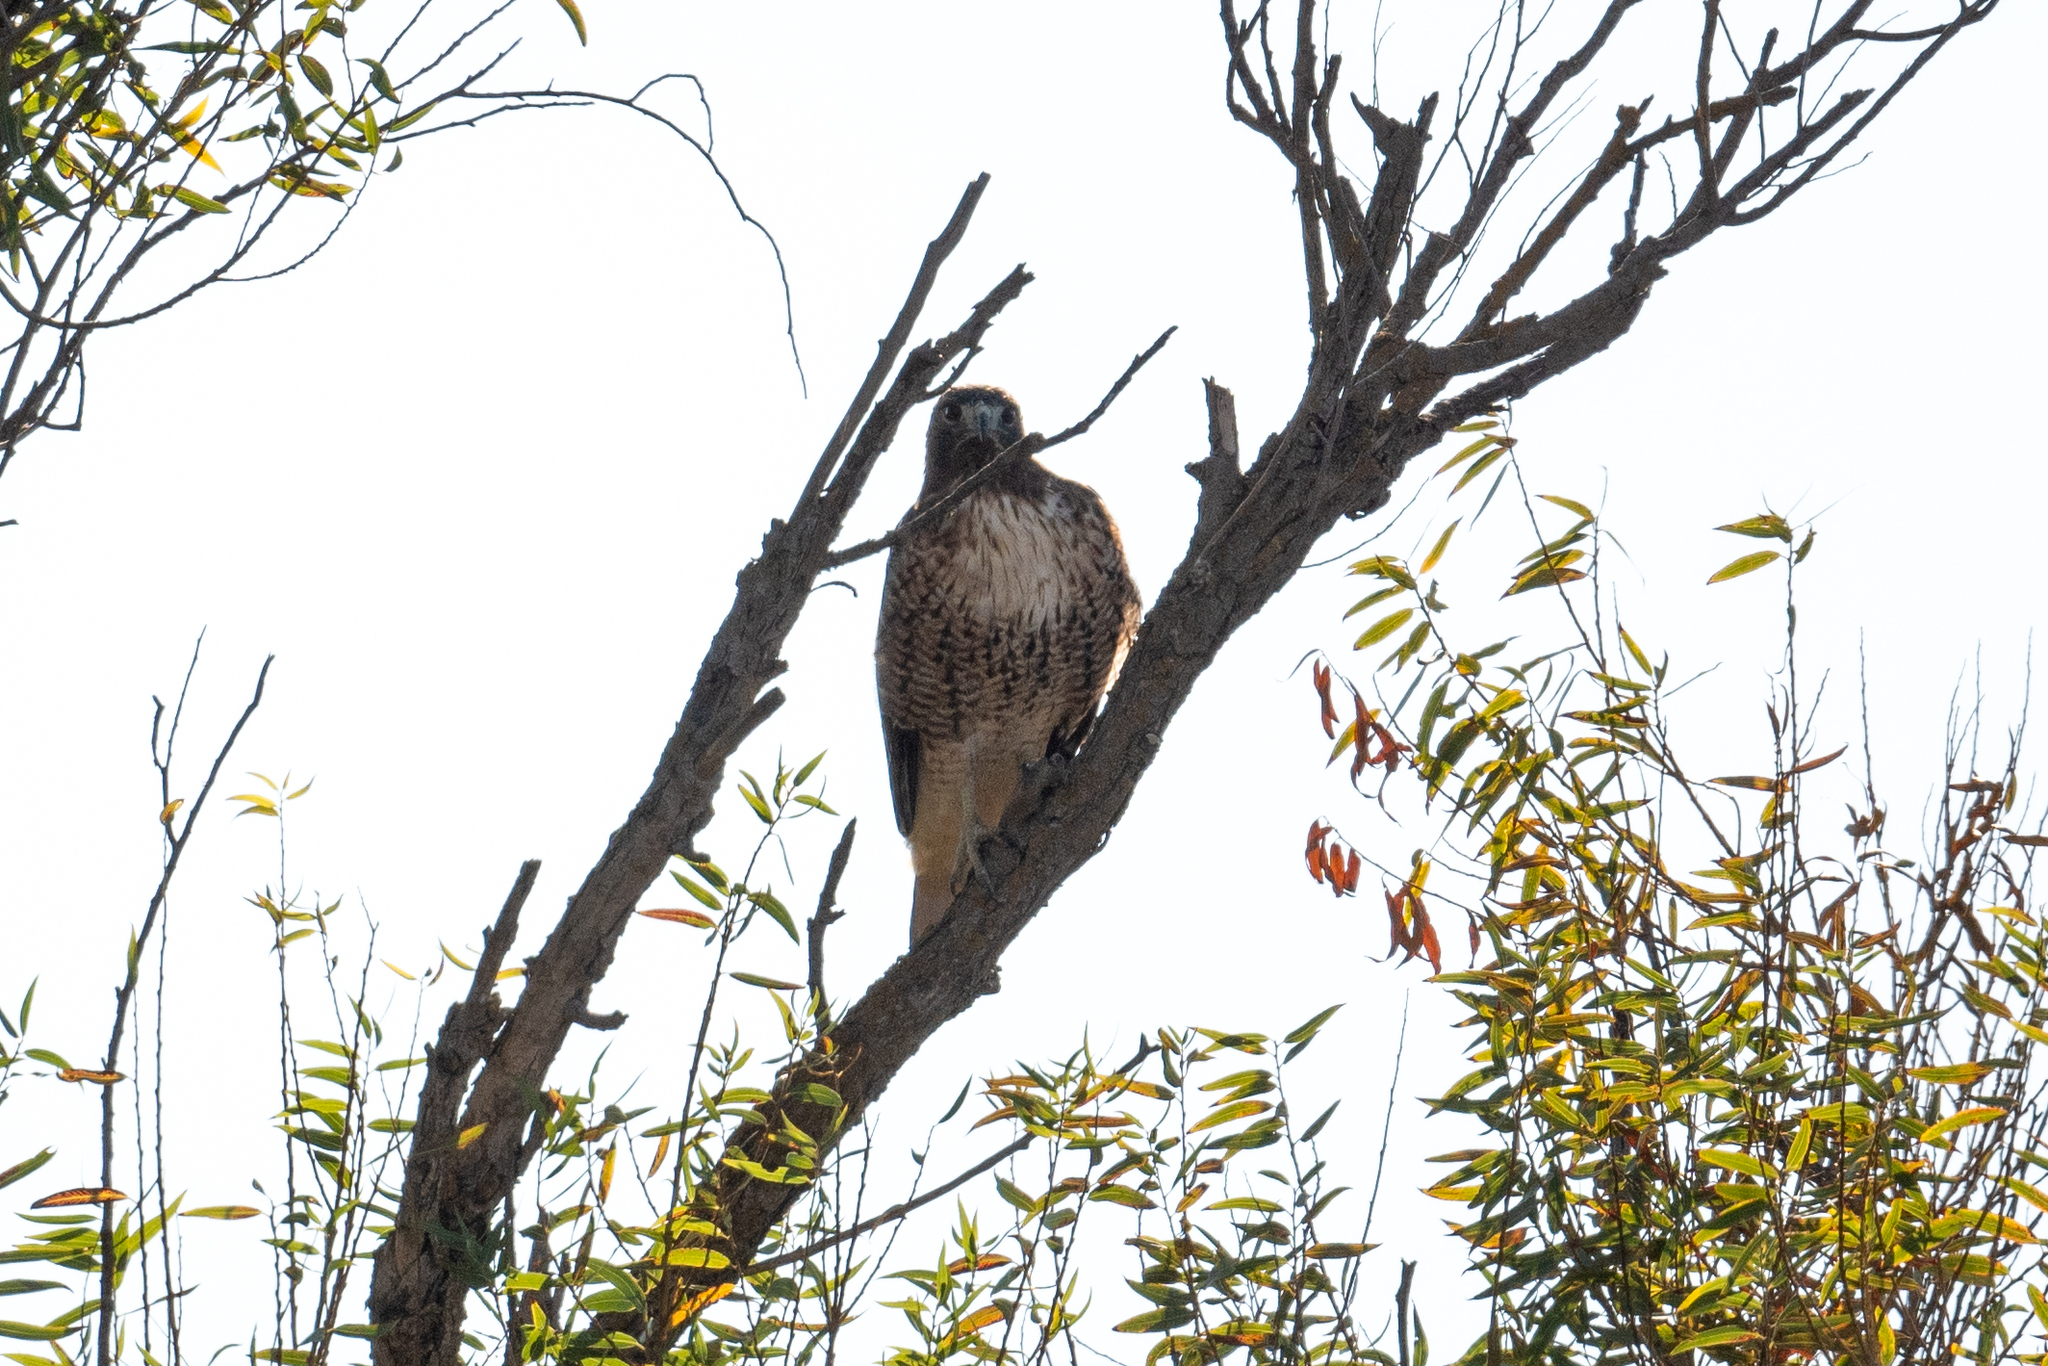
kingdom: Animalia
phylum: Chordata
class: Aves
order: Accipitriformes
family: Accipitridae
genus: Buteo
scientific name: Buteo jamaicensis
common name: Red-tailed hawk
